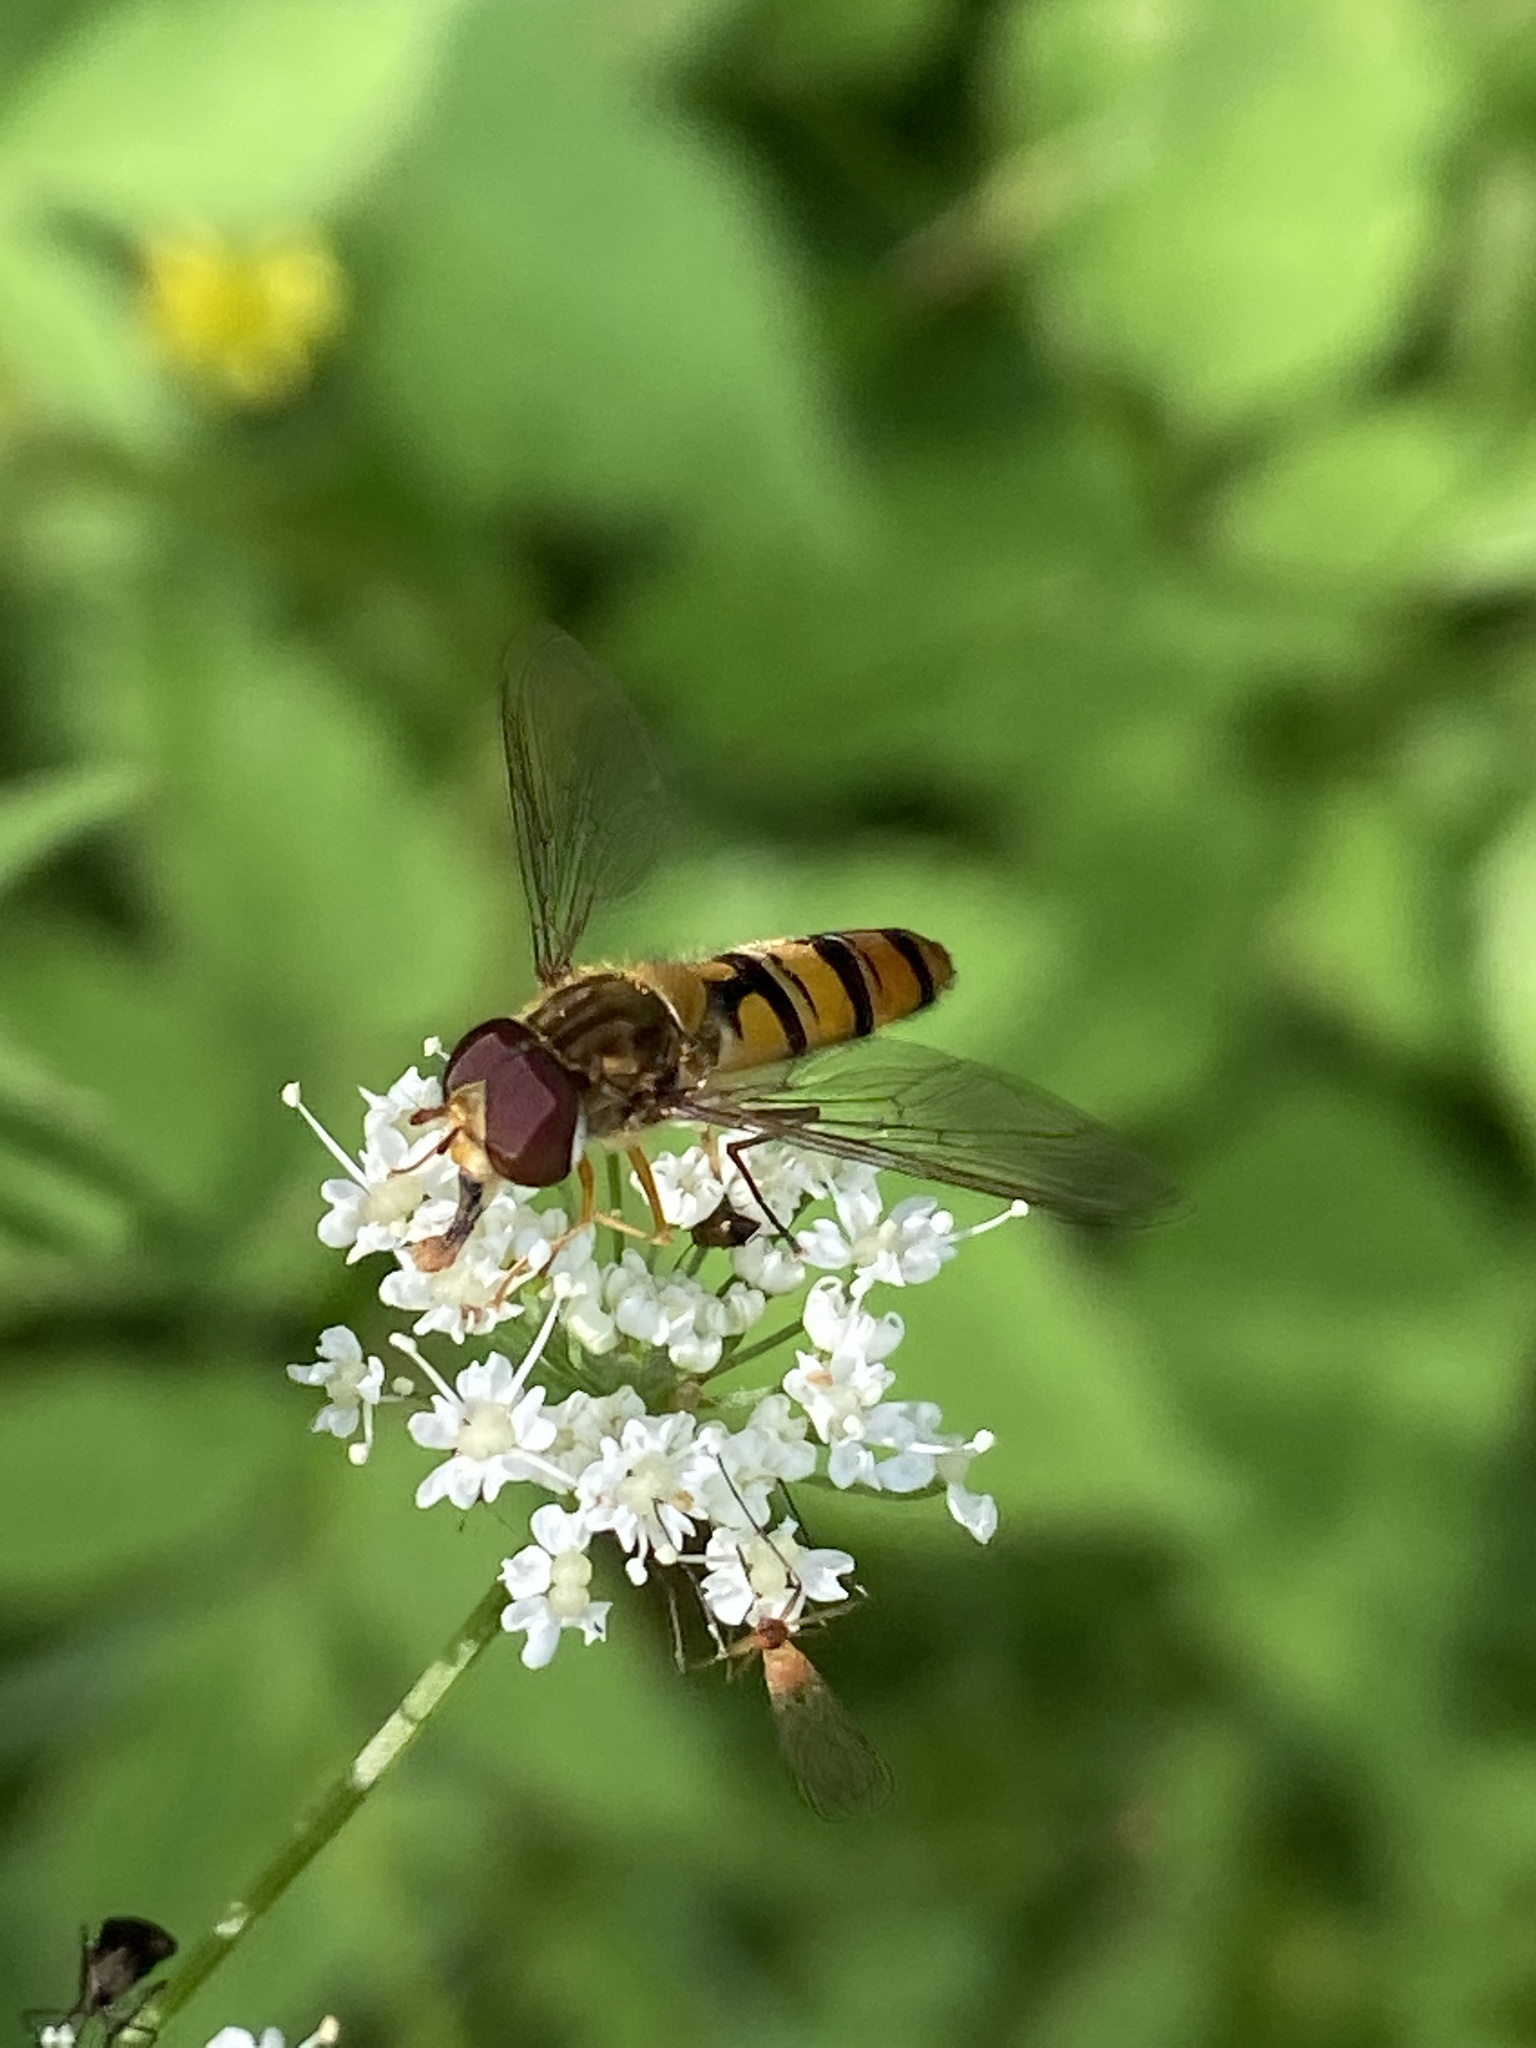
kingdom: Animalia
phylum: Arthropoda
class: Insecta
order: Diptera
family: Syrphidae
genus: Episyrphus
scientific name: Episyrphus balteatus
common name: Marmalade hoverfly
